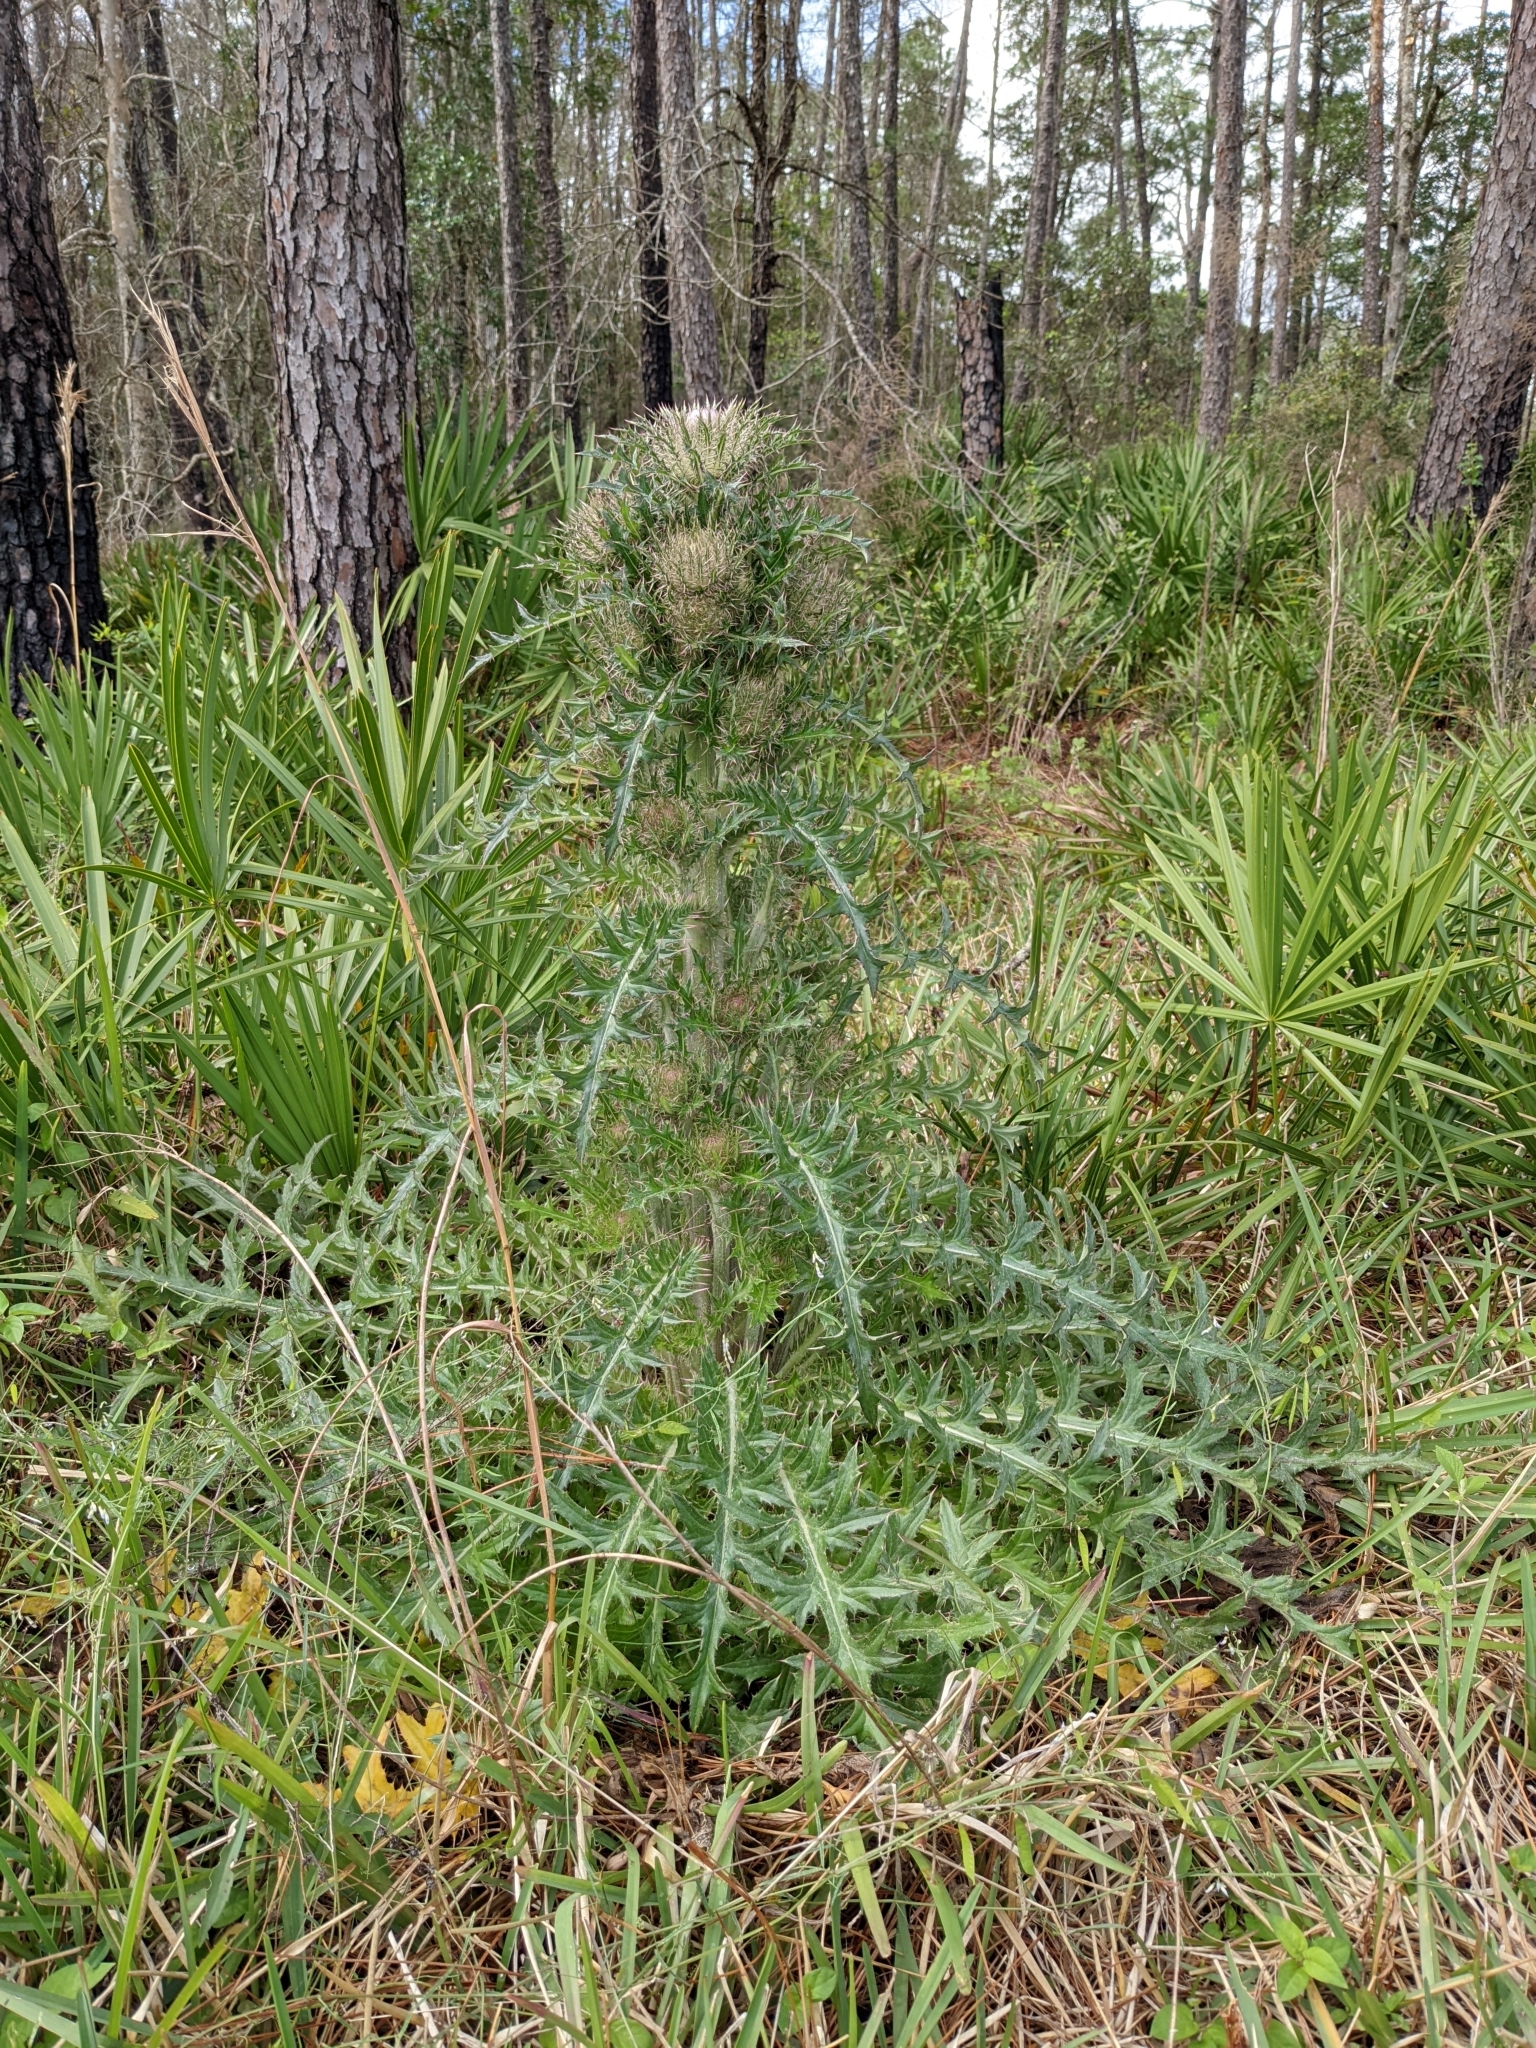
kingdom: Plantae
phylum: Tracheophyta
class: Magnoliopsida
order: Asterales
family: Asteraceae
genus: Cirsium
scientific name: Cirsium horridulum
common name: Bristly thistle
